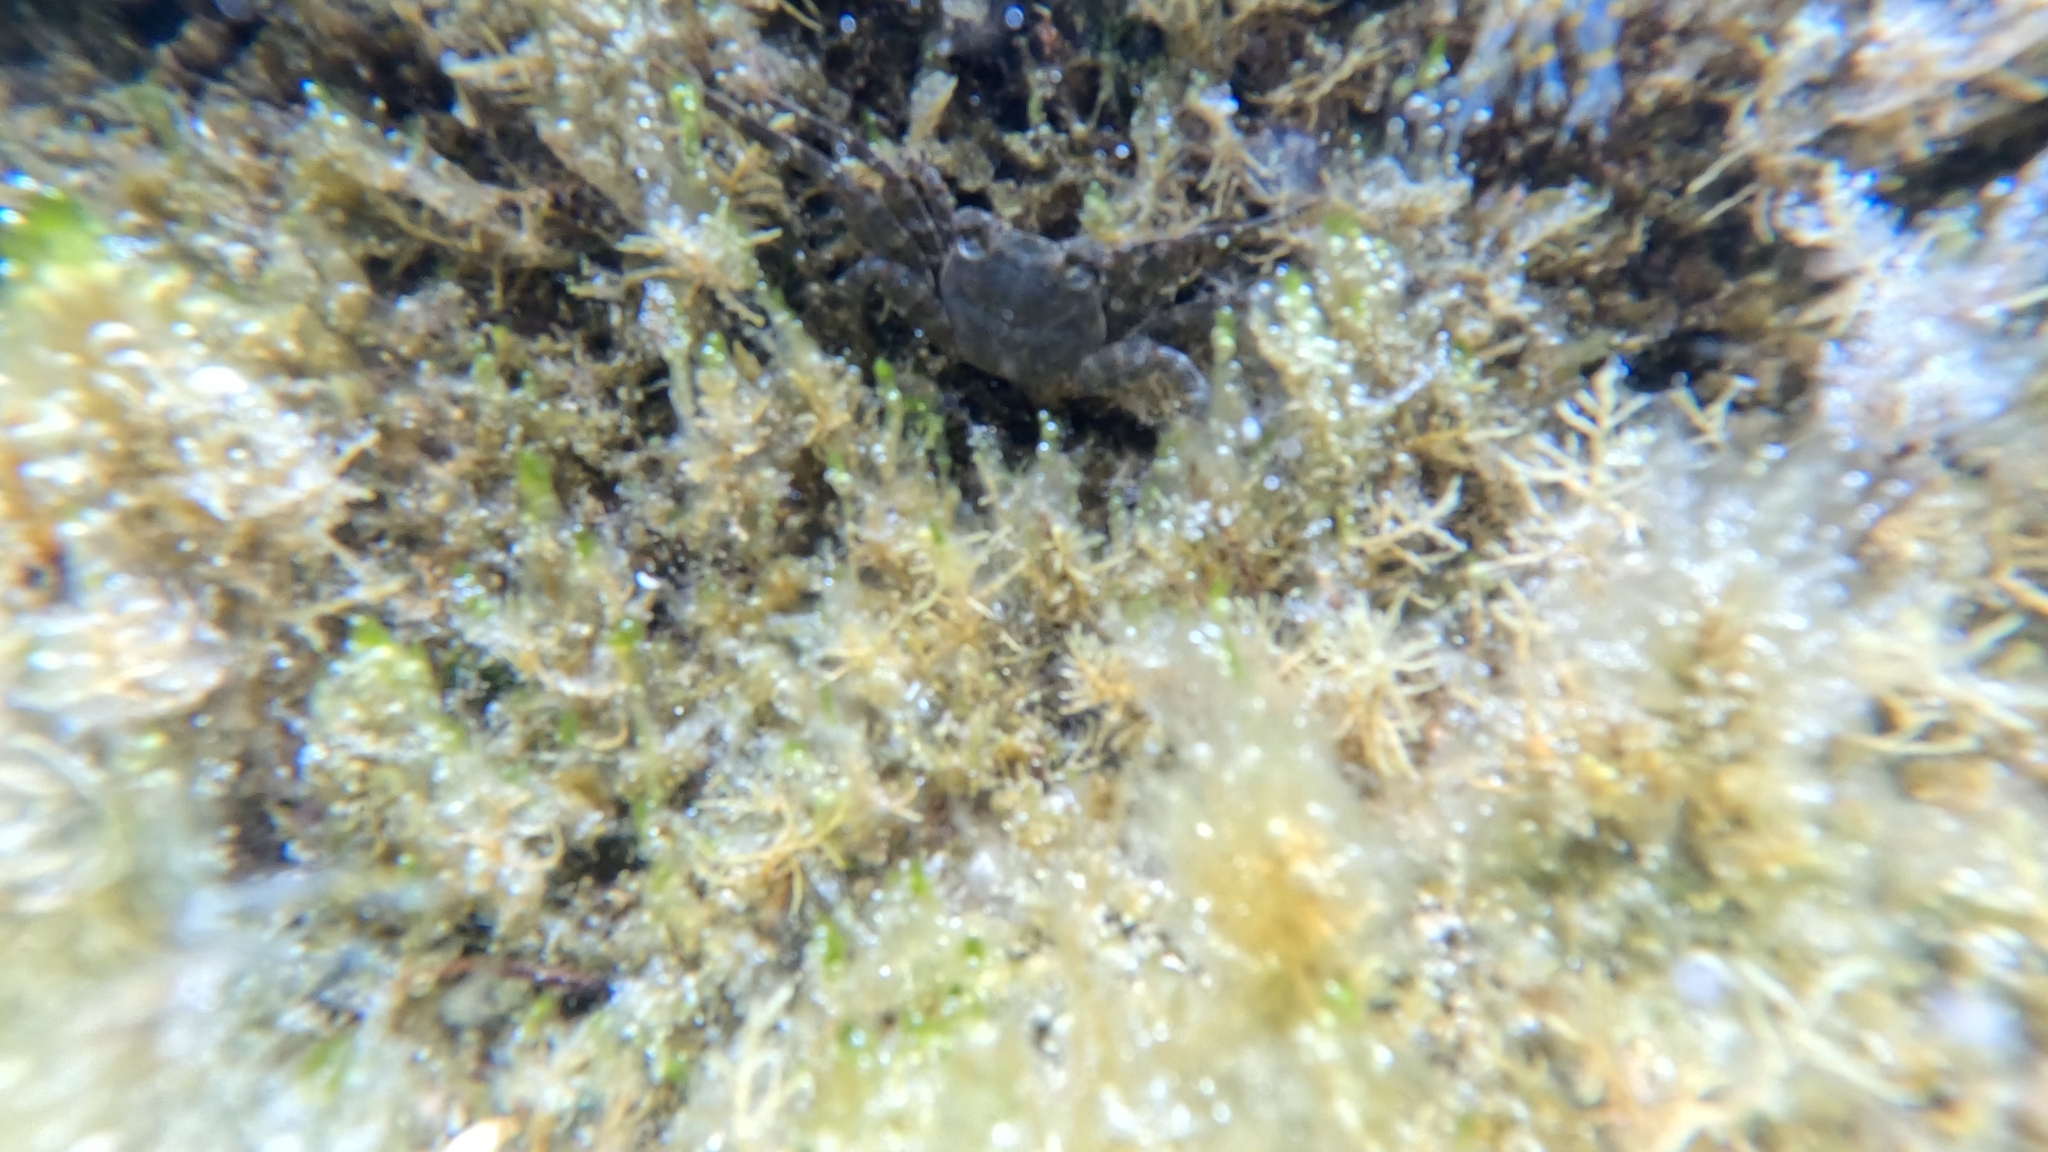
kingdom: Animalia
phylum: Arthropoda
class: Malacostraca
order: Decapoda
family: Grapsidae
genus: Grapsus
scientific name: Grapsus adscensionis
